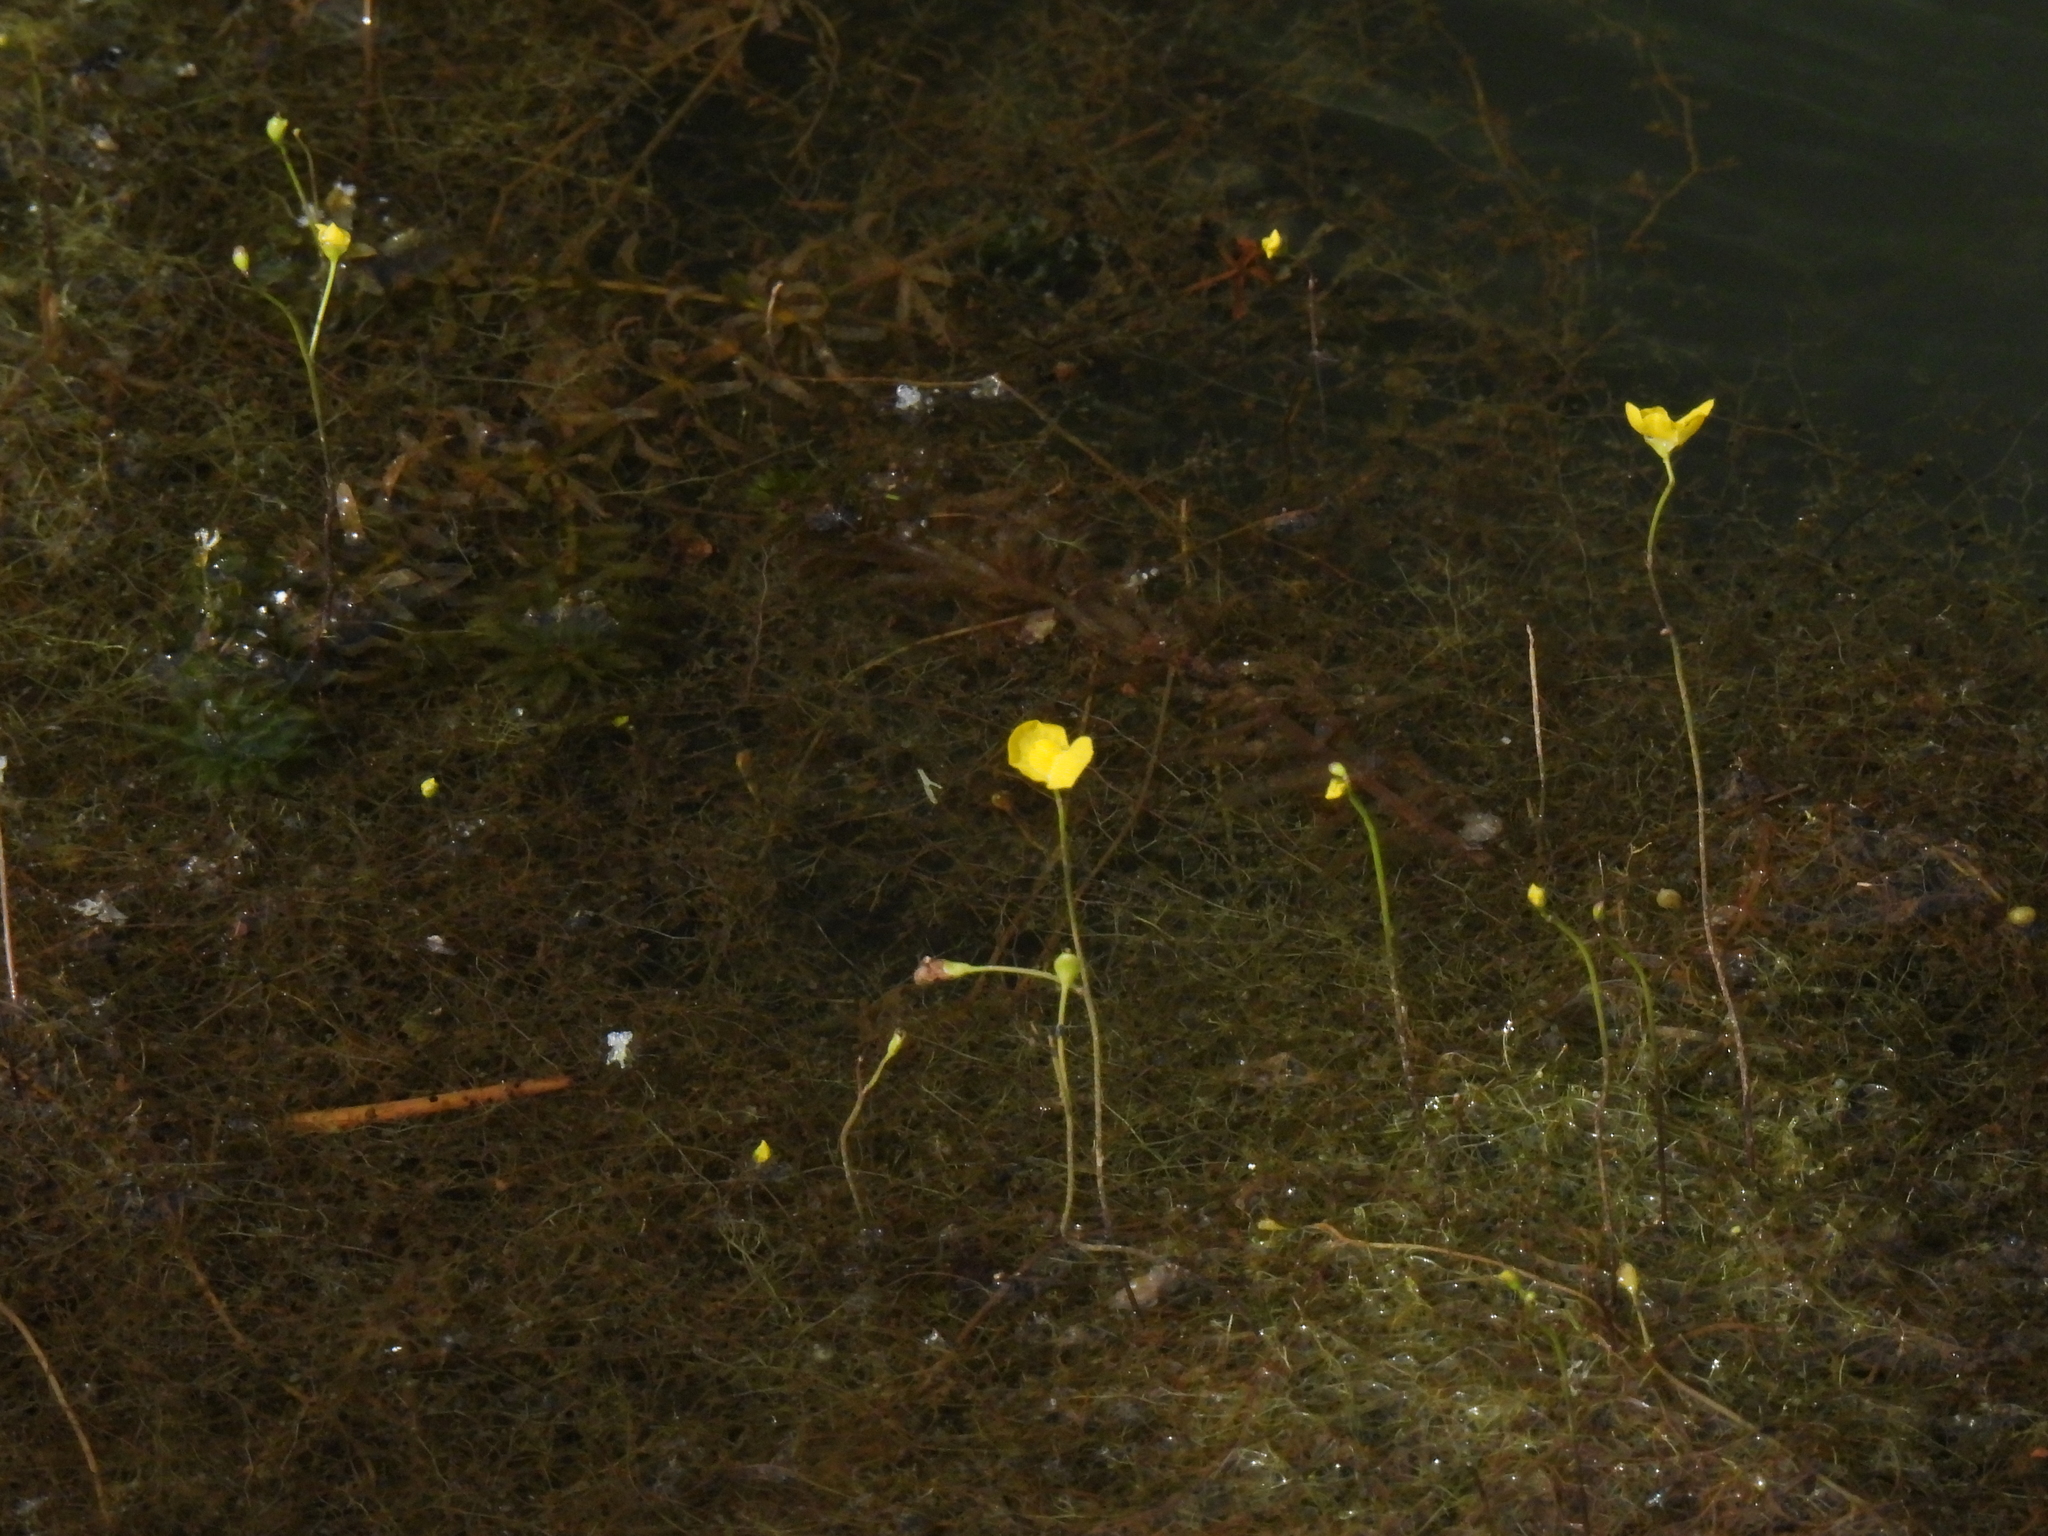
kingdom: Plantae
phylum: Tracheophyta
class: Magnoliopsida
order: Lamiales
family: Lentibulariaceae
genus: Utricularia
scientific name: Utricularia gibba
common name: Humped bladderwort
